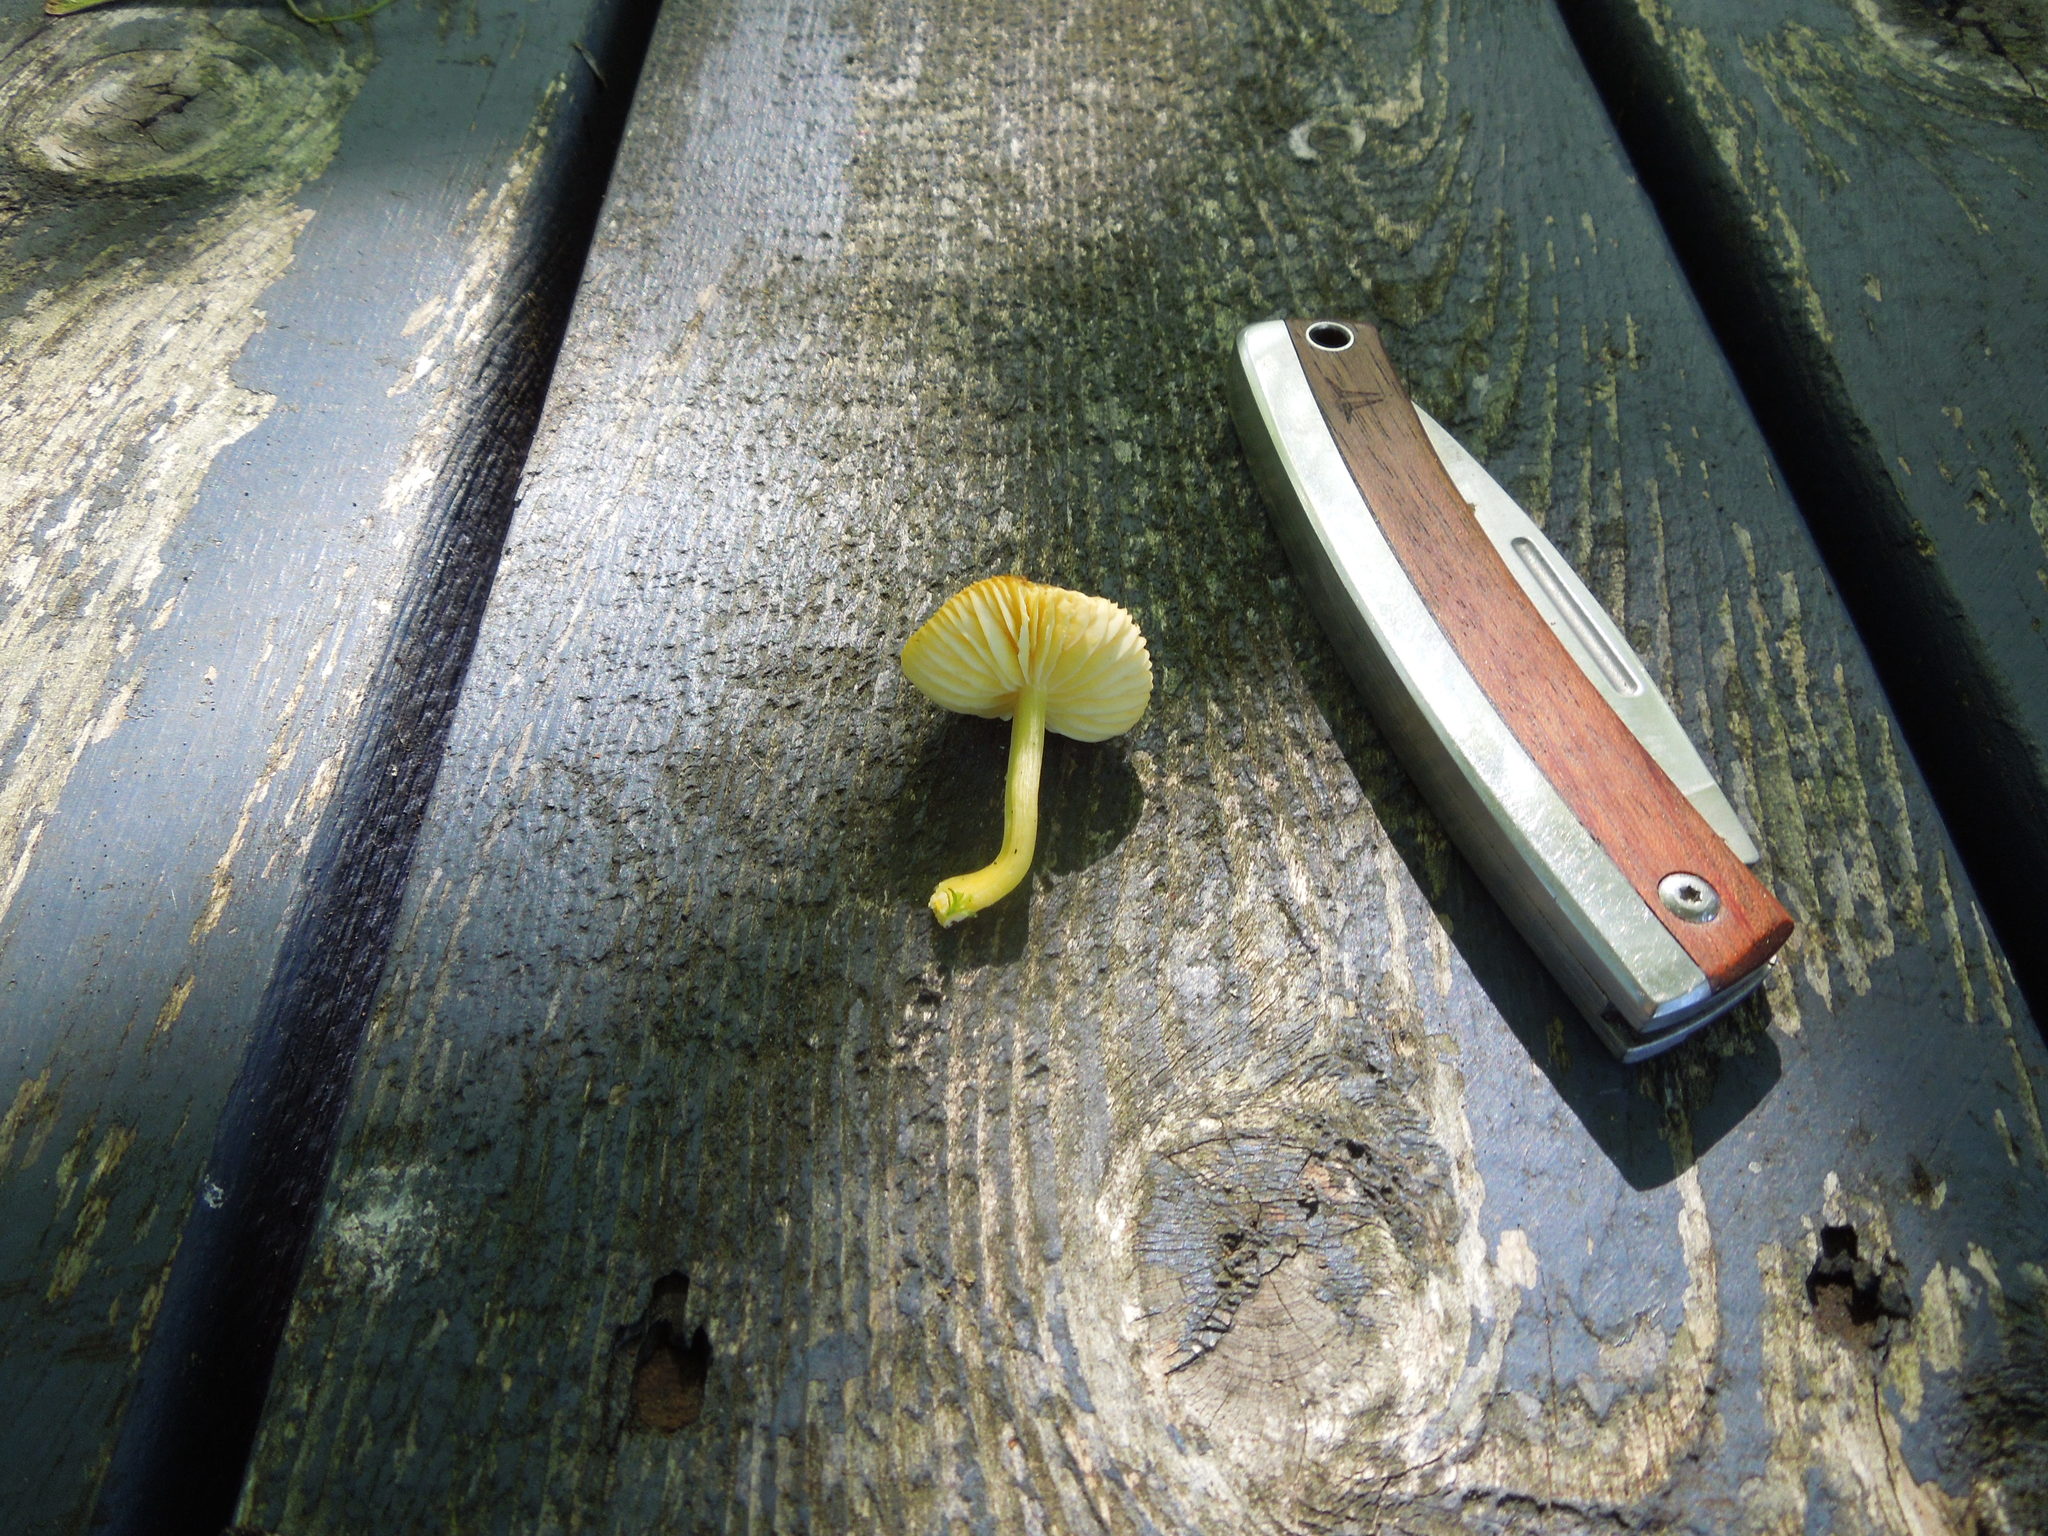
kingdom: Fungi
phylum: Basidiomycota
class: Agaricomycetes
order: Agaricales
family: Hygrophoraceae
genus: Hygrocybe
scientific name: Hygrocybe
